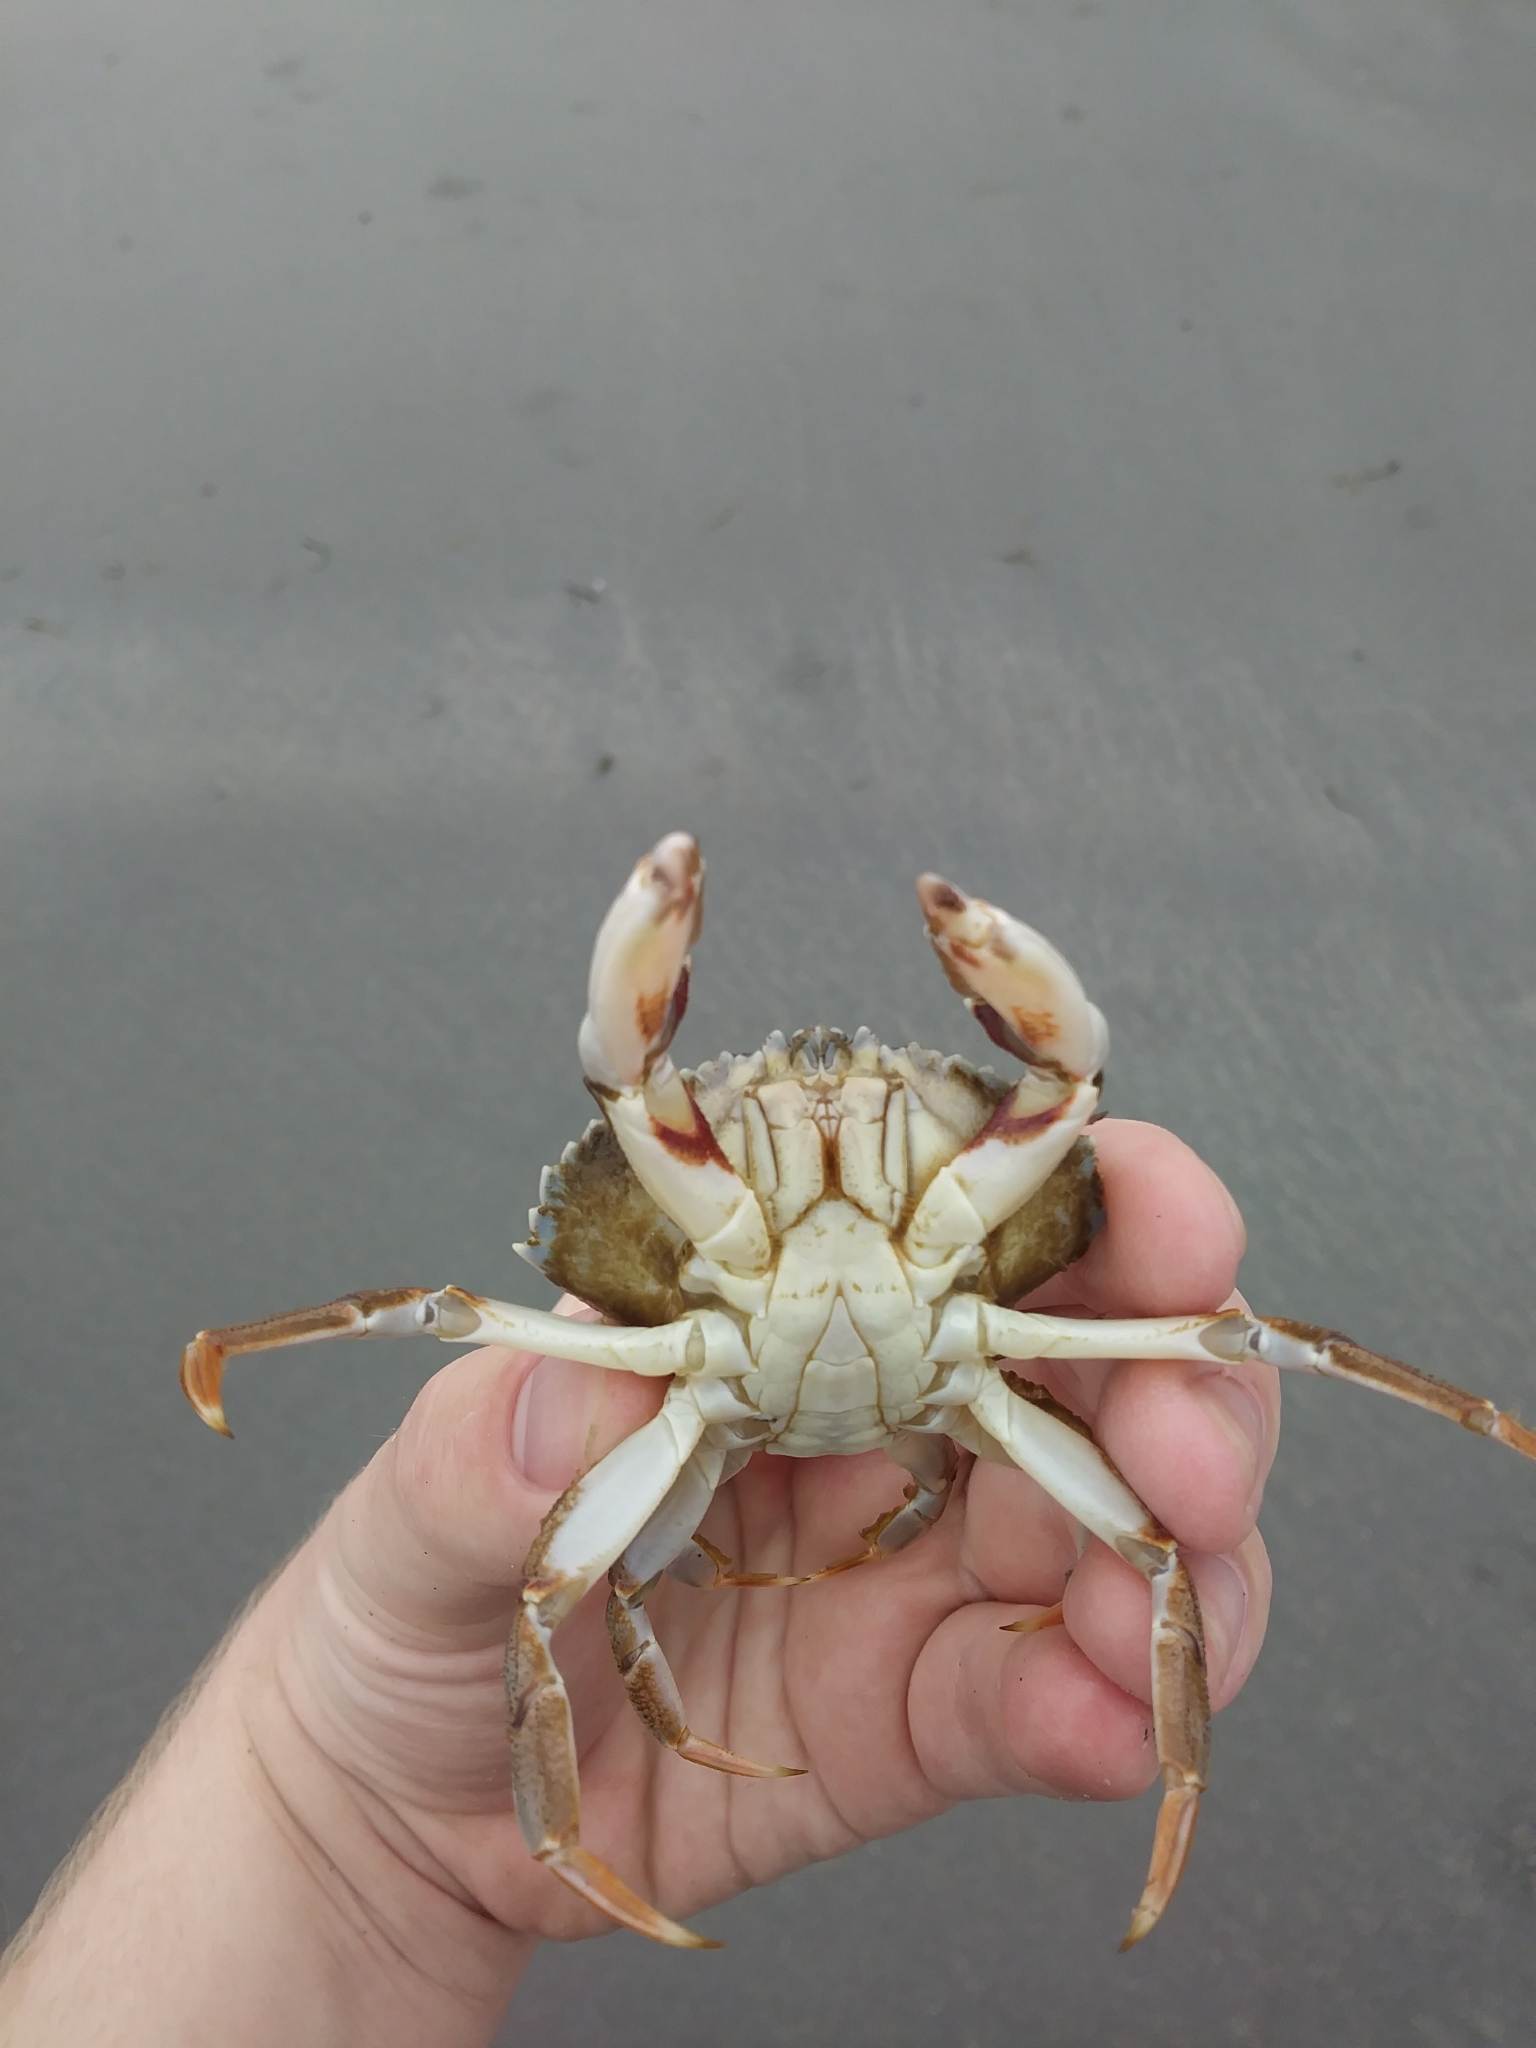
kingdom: Animalia
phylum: Arthropoda
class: Malacostraca
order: Decapoda
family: Cancridae
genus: Cancer
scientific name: Cancer irroratus
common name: Atlantic rock crab
